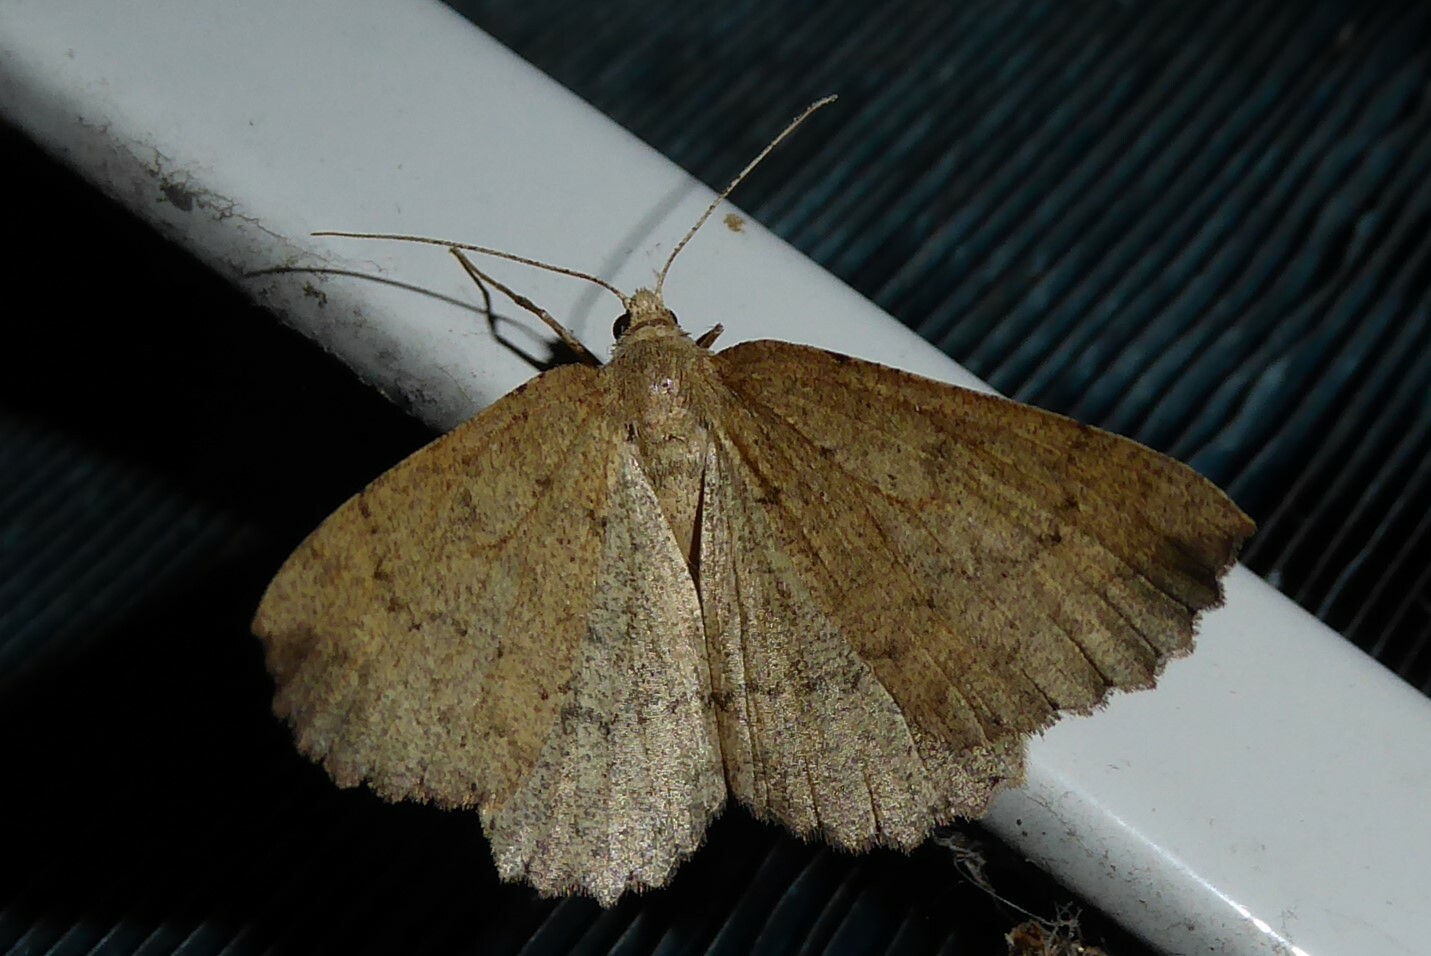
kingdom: Animalia
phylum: Arthropoda
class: Insecta
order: Lepidoptera
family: Geometridae
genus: Cleora
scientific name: Cleora scriptaria
